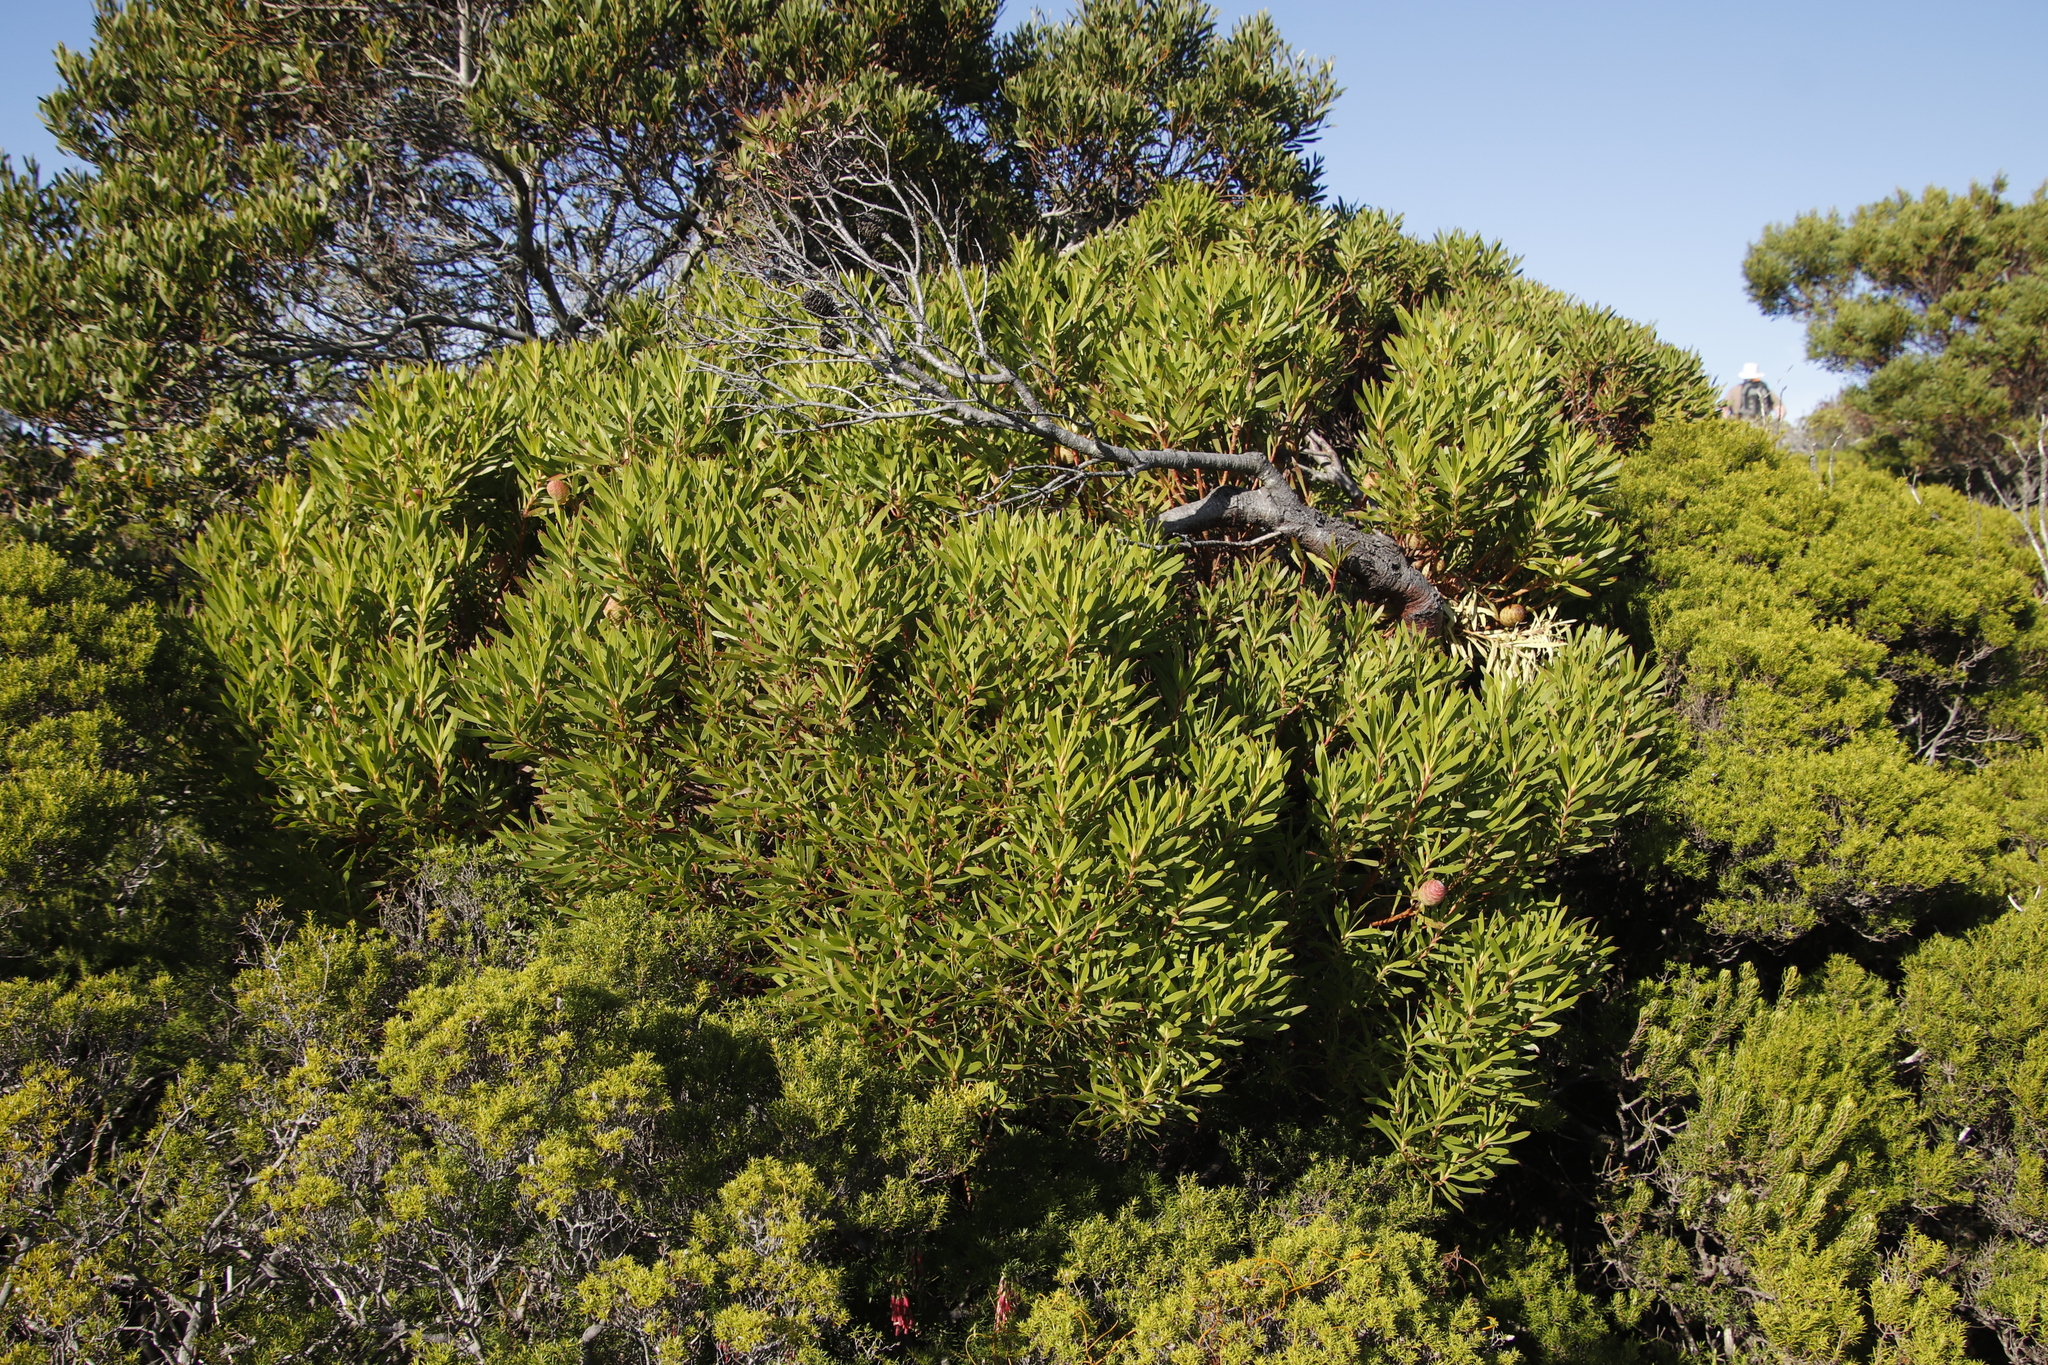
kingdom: Plantae
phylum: Tracheophyta
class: Magnoliopsida
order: Proteales
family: Proteaceae
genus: Leucadendron
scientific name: Leucadendron coniferum
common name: Dune conebush
